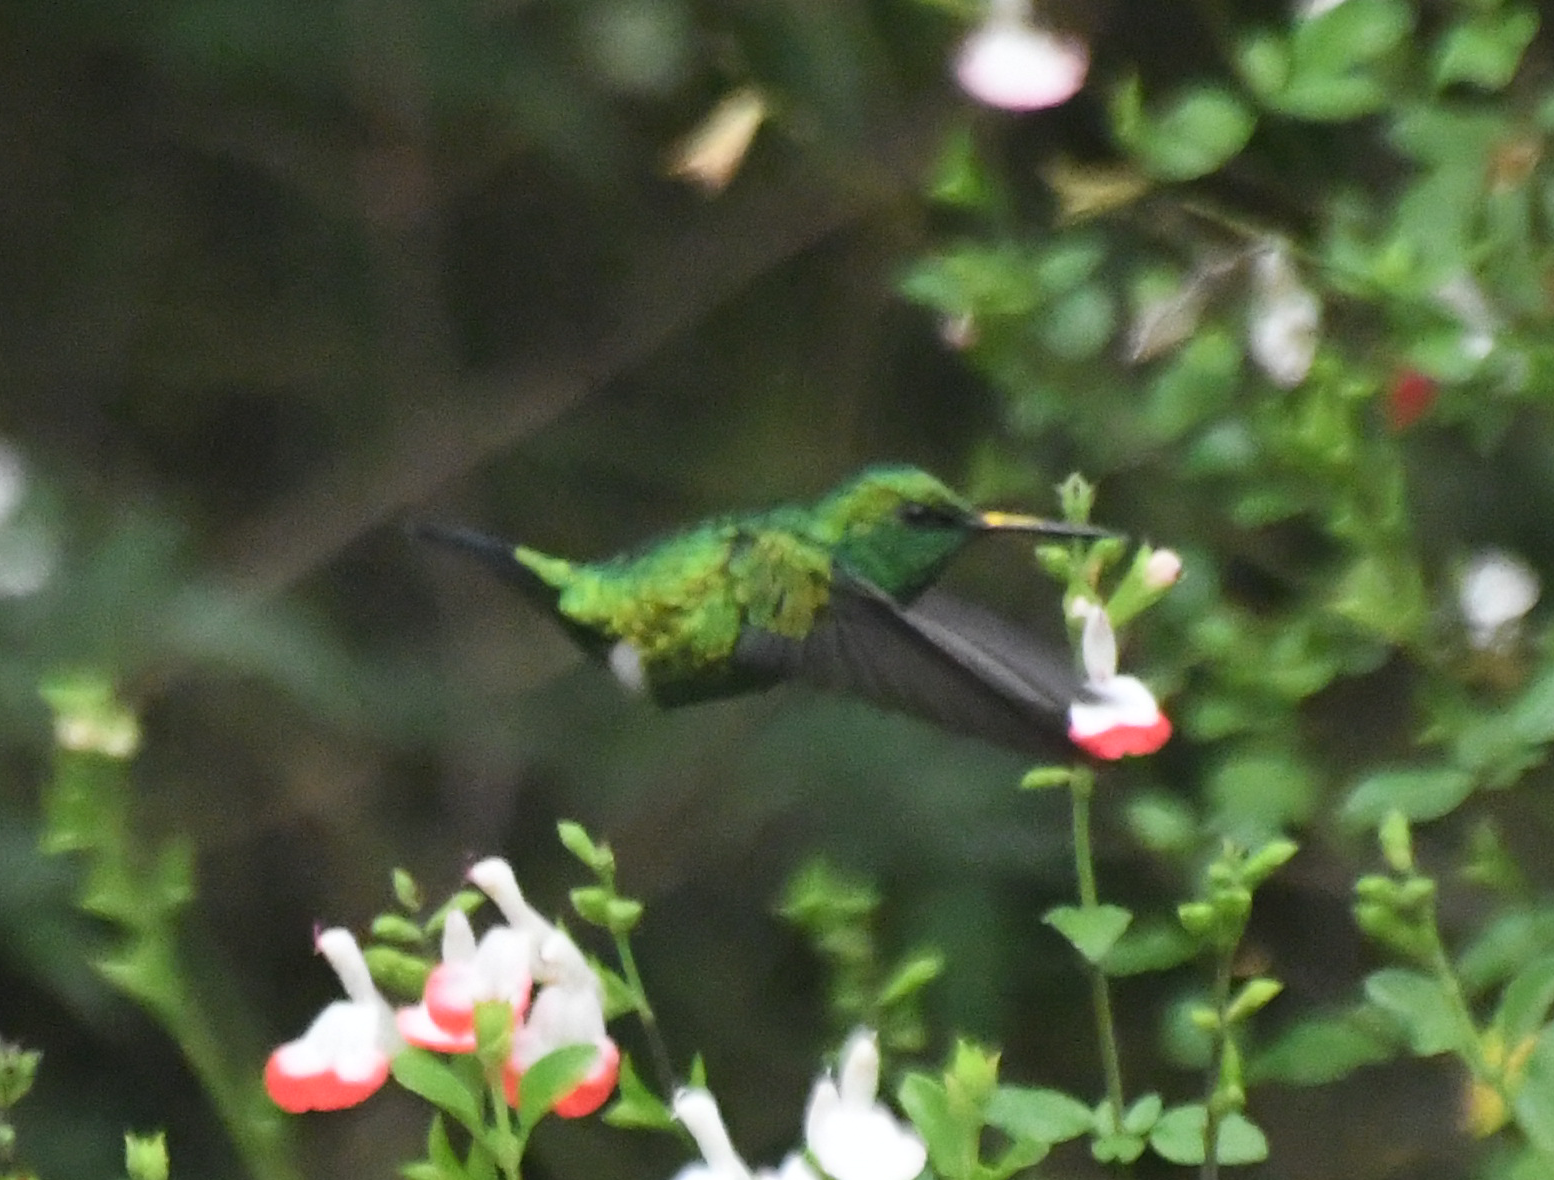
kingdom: Animalia
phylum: Chordata
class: Aves
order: Apodiformes
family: Trochilidae
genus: Chlorostilbon
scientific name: Chlorostilbon melanorhynchus
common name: Western emerald
